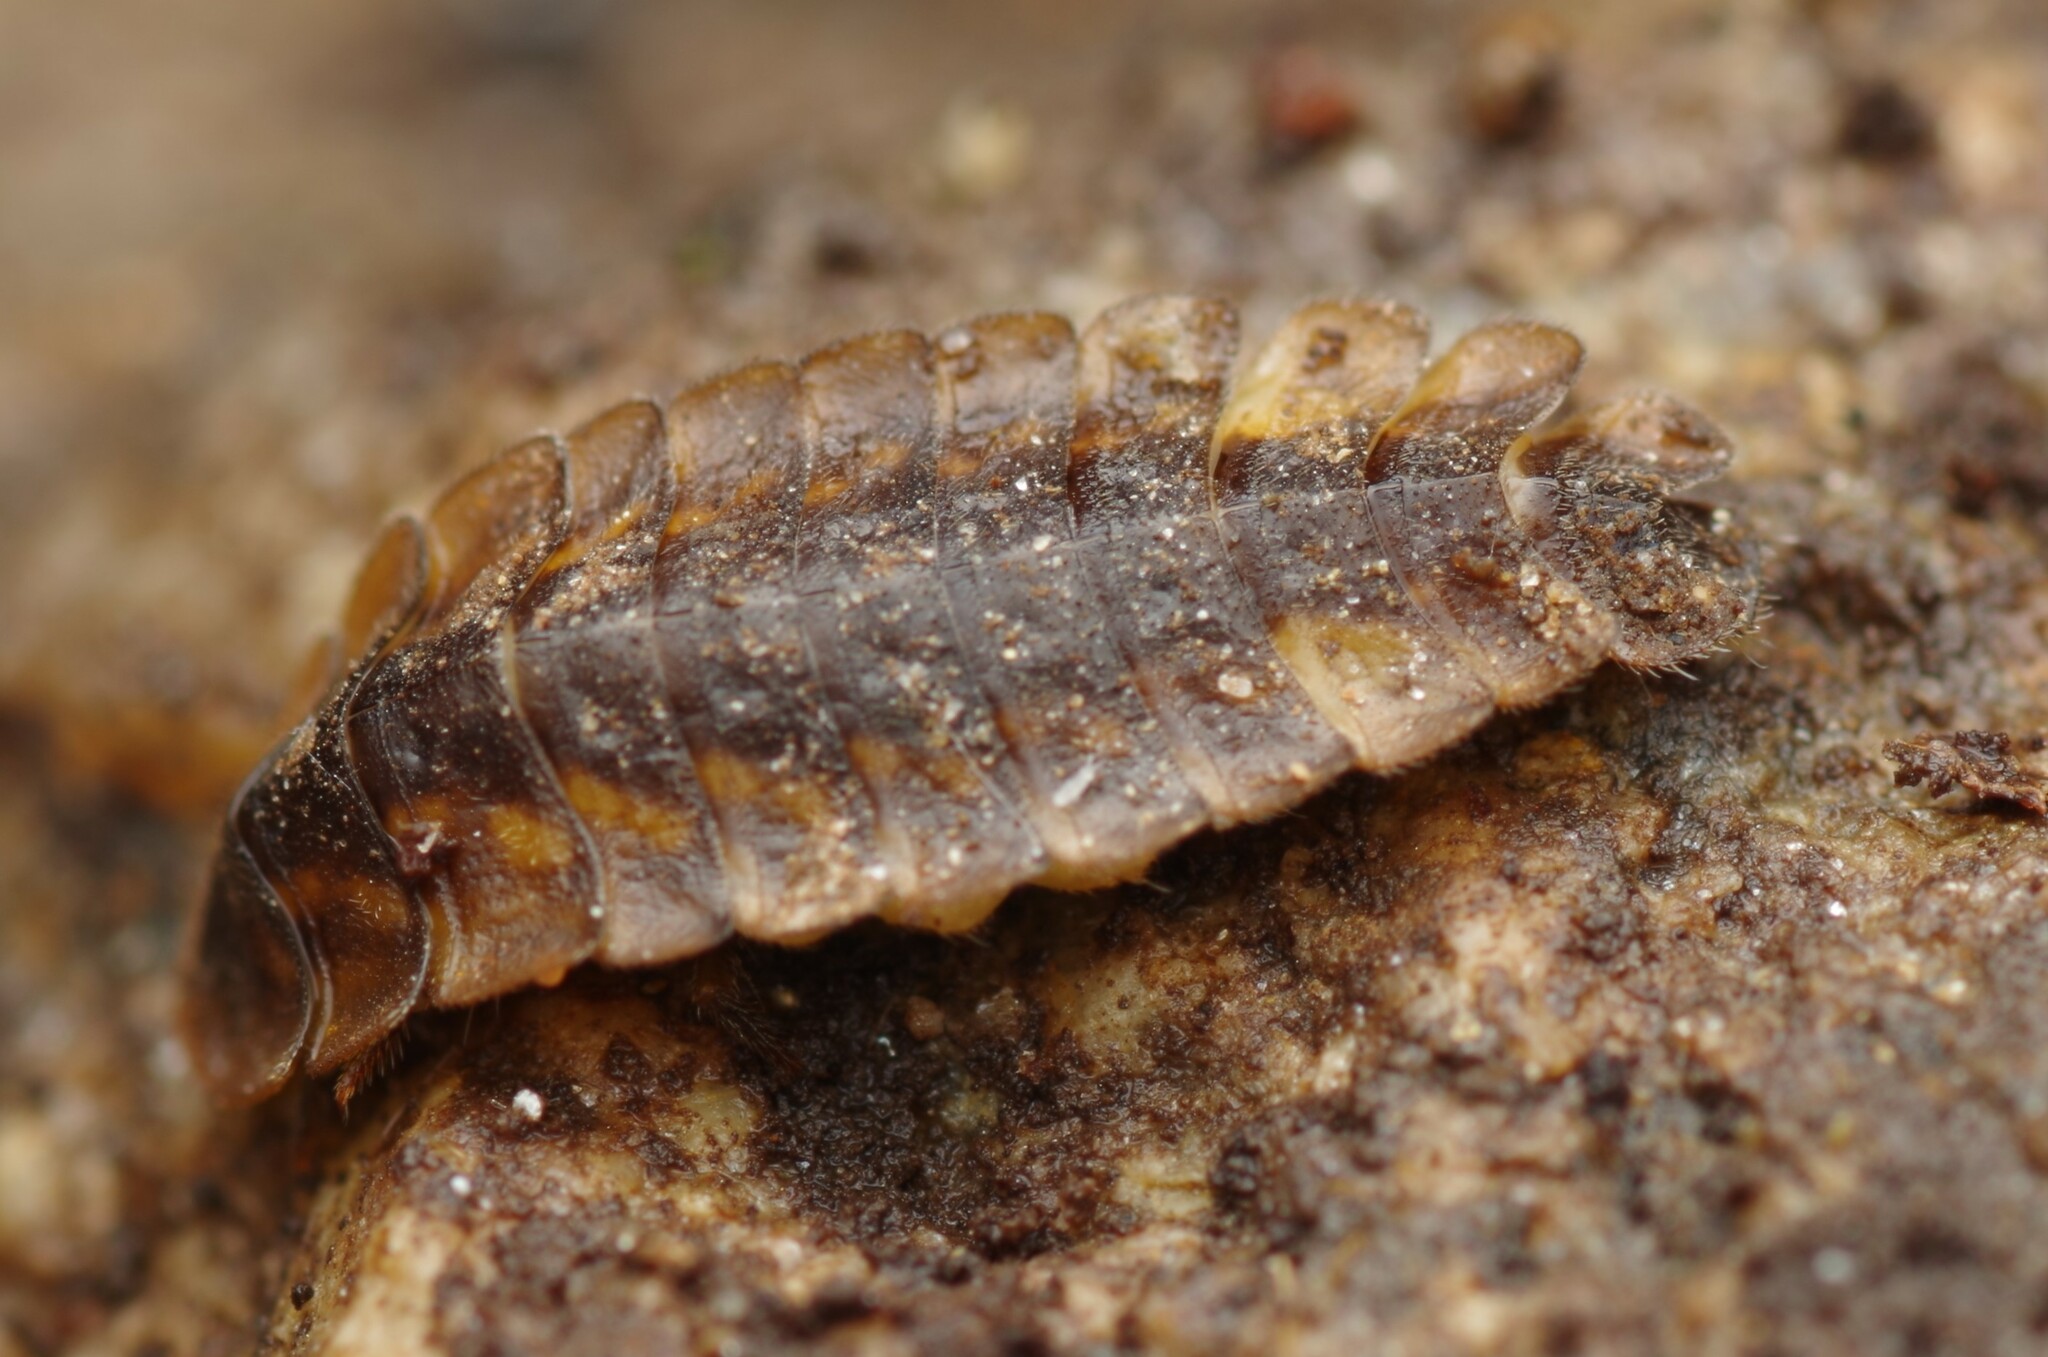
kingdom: Animalia
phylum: Arthropoda
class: Insecta
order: Coleoptera
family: Lampyridae
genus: Lamprohiza
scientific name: Lamprohiza mulsantii
